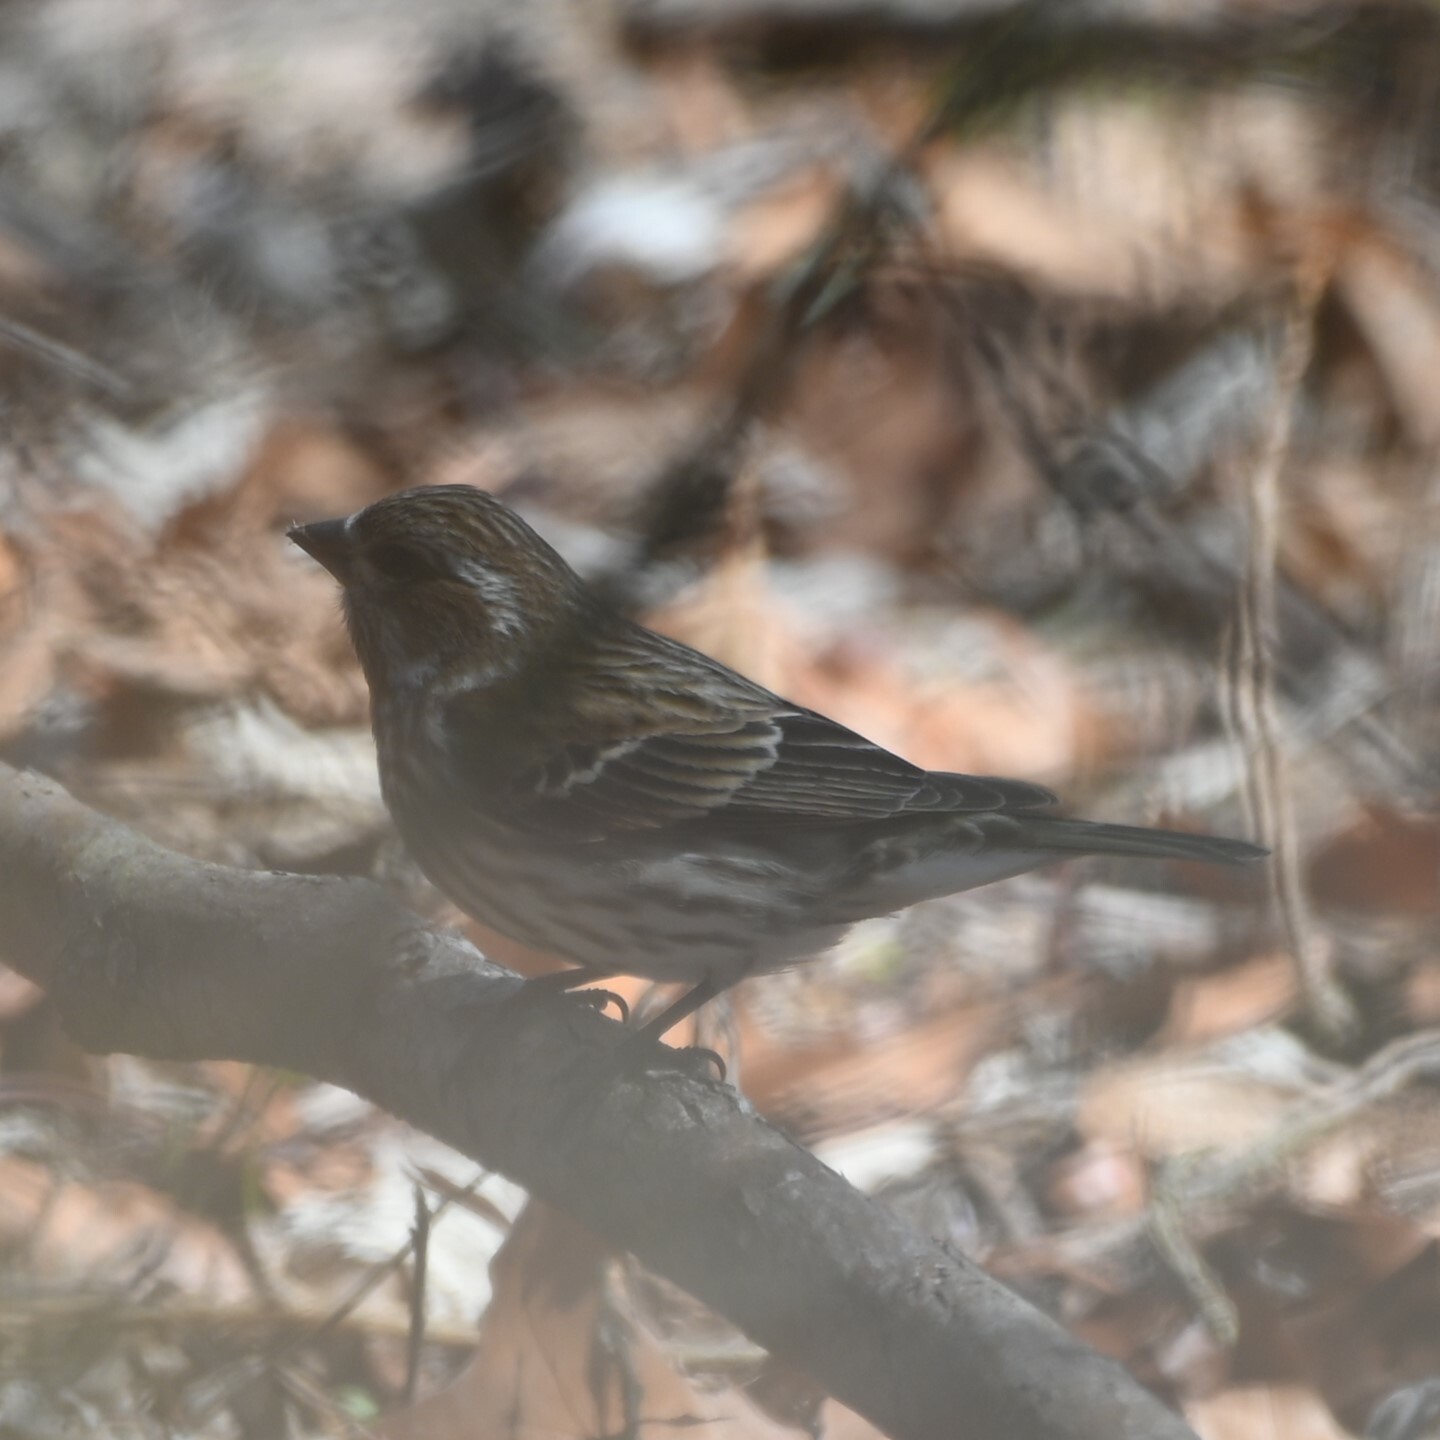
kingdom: Animalia
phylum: Chordata
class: Aves
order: Passeriformes
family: Fringillidae
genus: Haemorhous
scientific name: Haemorhous purpureus
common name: Purple finch
